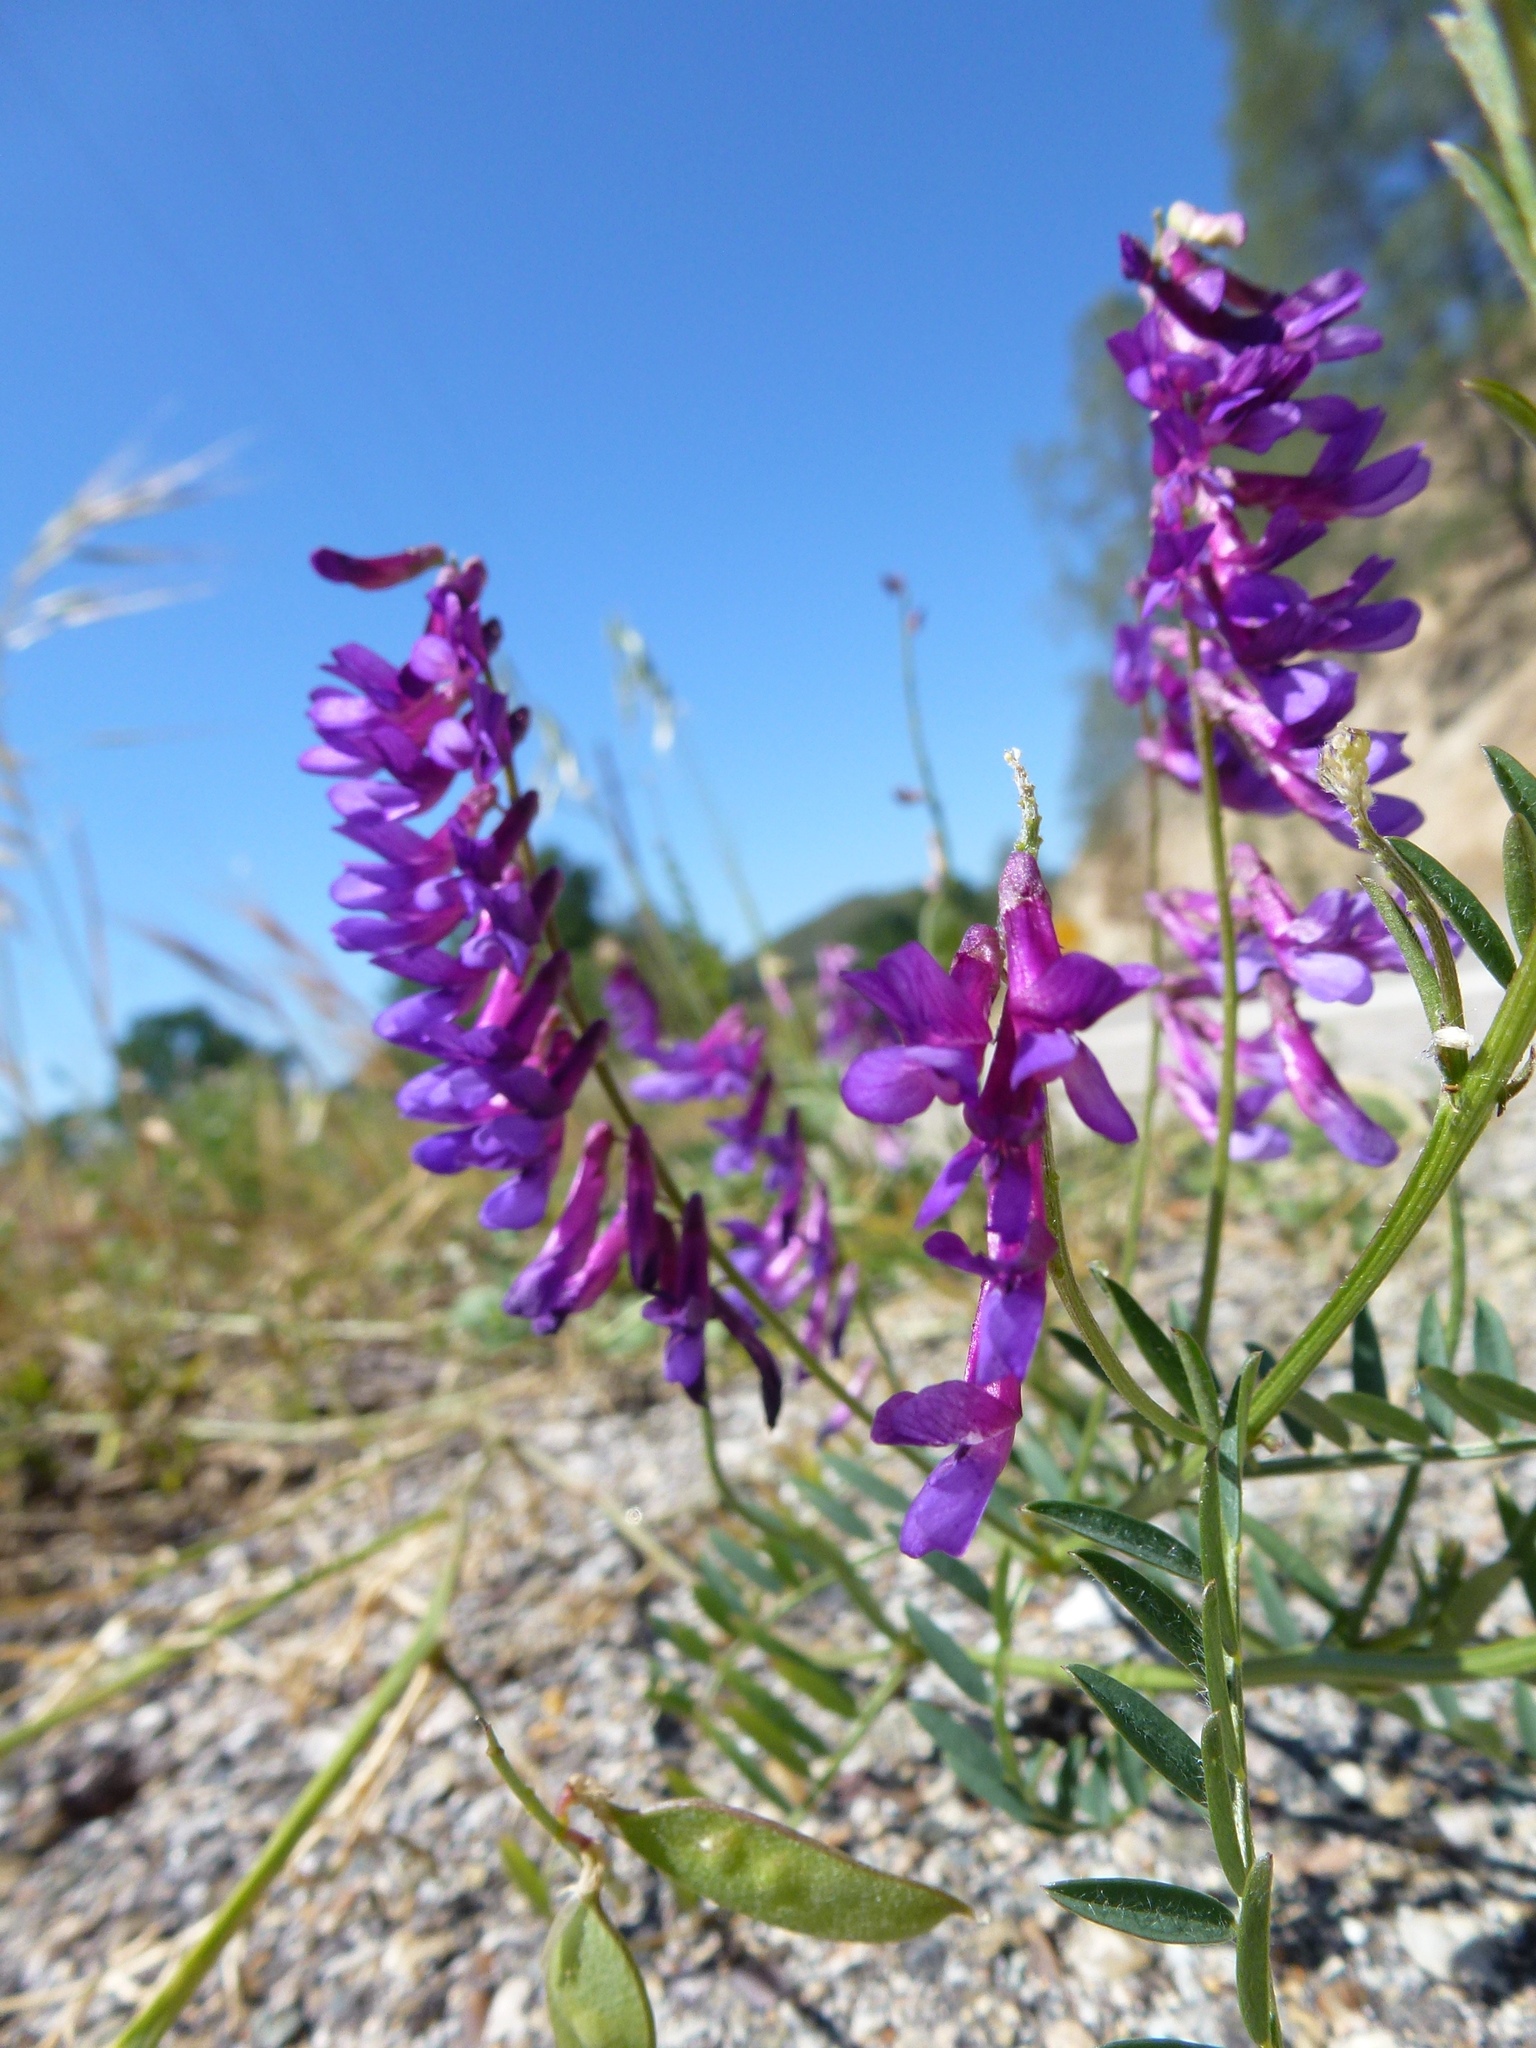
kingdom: Plantae
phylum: Tracheophyta
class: Magnoliopsida
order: Fabales
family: Fabaceae
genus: Vicia
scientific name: Vicia villosa
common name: Fodder vetch
